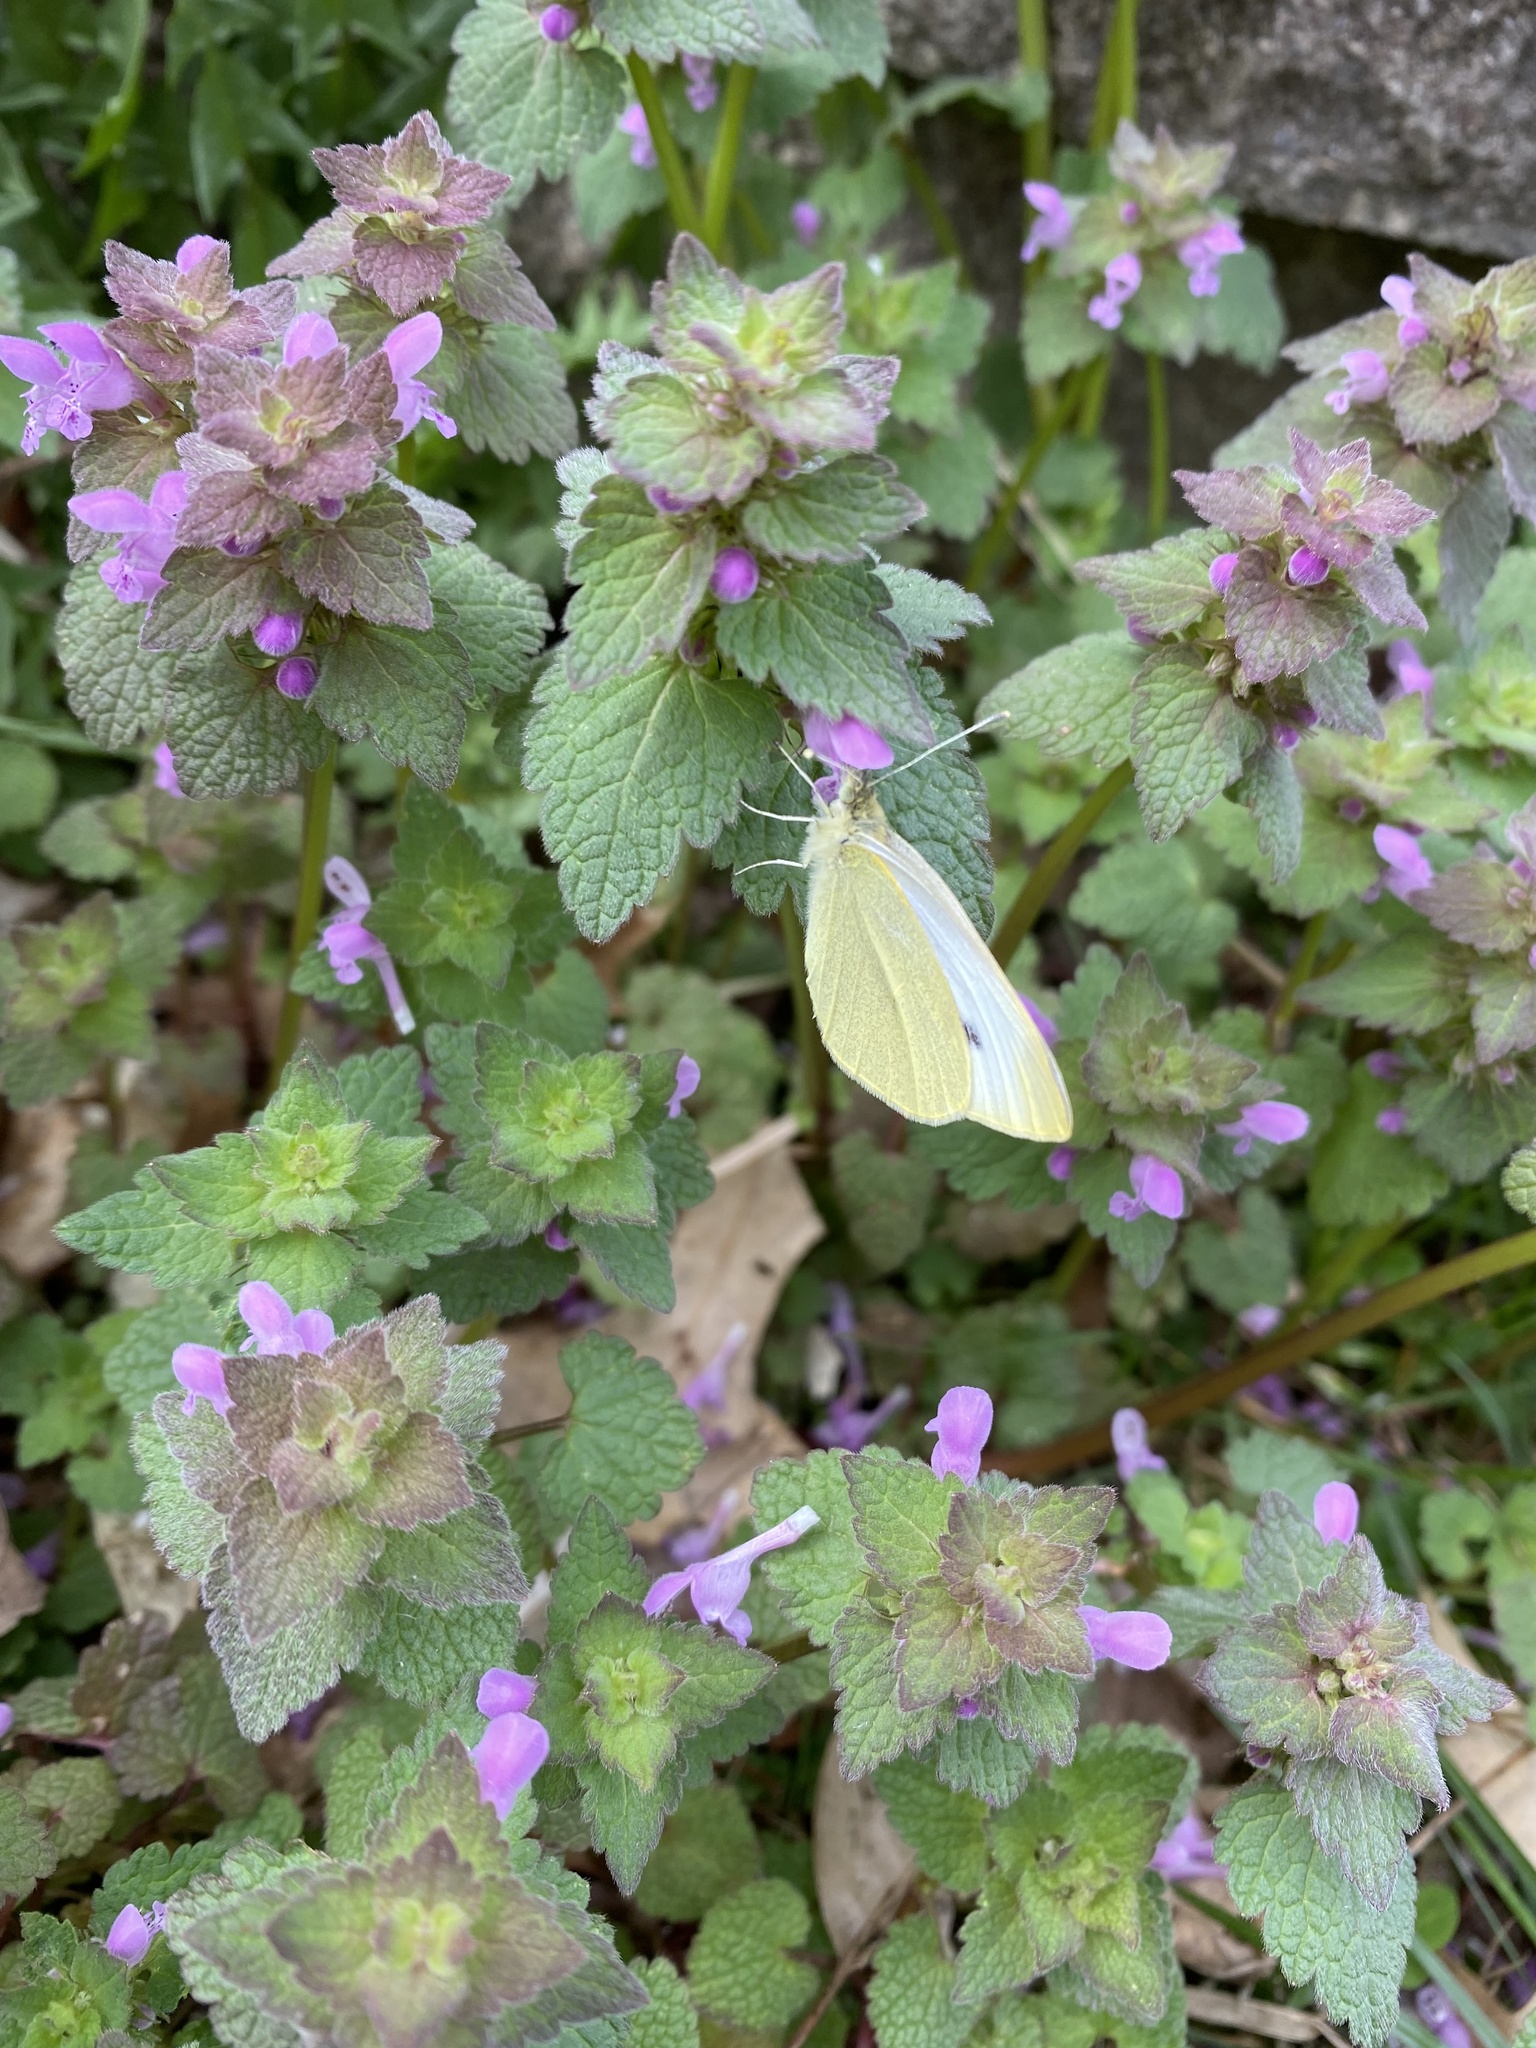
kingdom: Animalia
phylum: Arthropoda
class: Insecta
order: Lepidoptera
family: Pieridae
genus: Pieris
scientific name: Pieris rapae
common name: Small white
